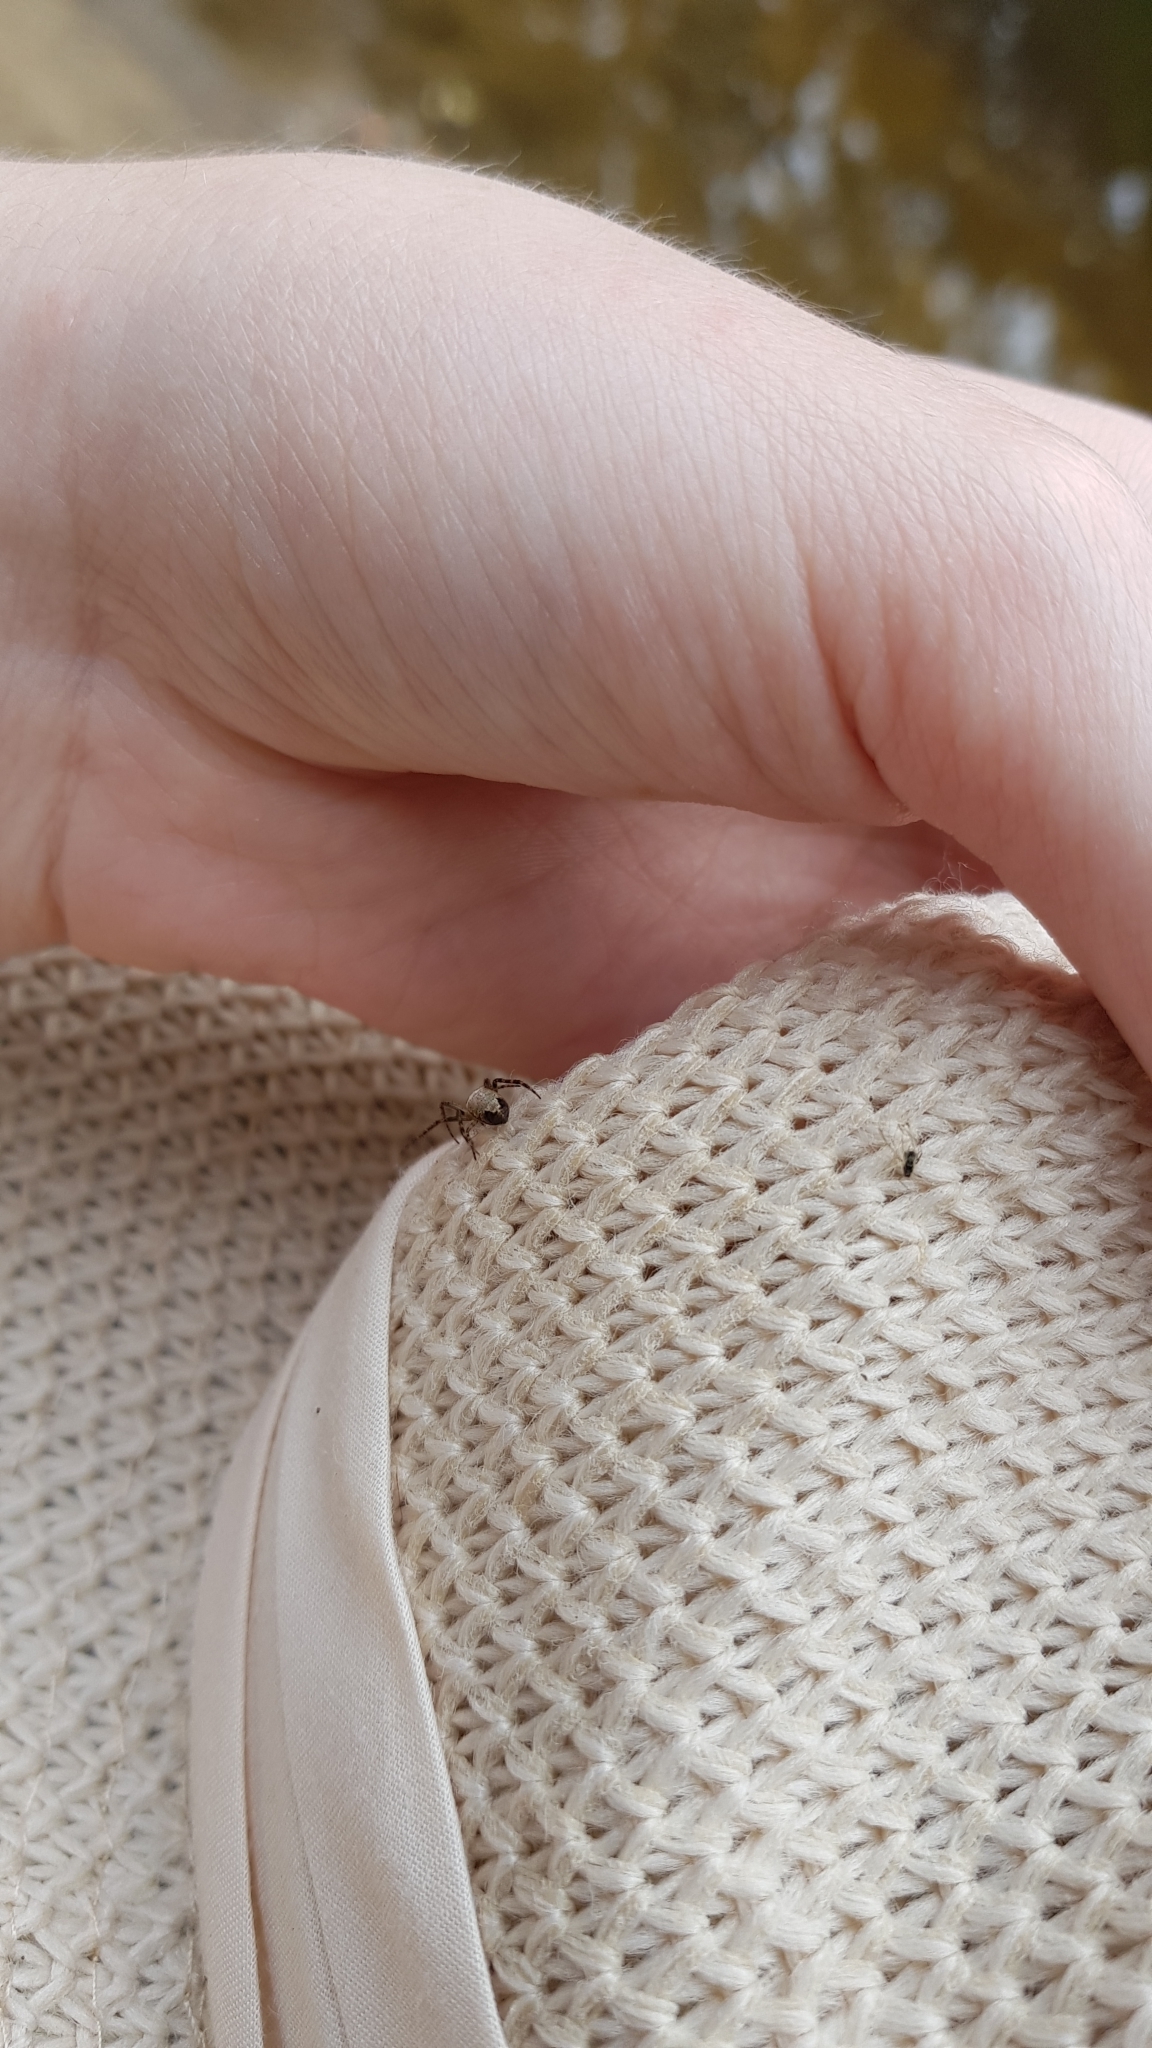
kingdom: Animalia
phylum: Arthropoda
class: Arachnida
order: Araneae
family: Araneidae
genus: Plebs
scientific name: Plebs eburnus
